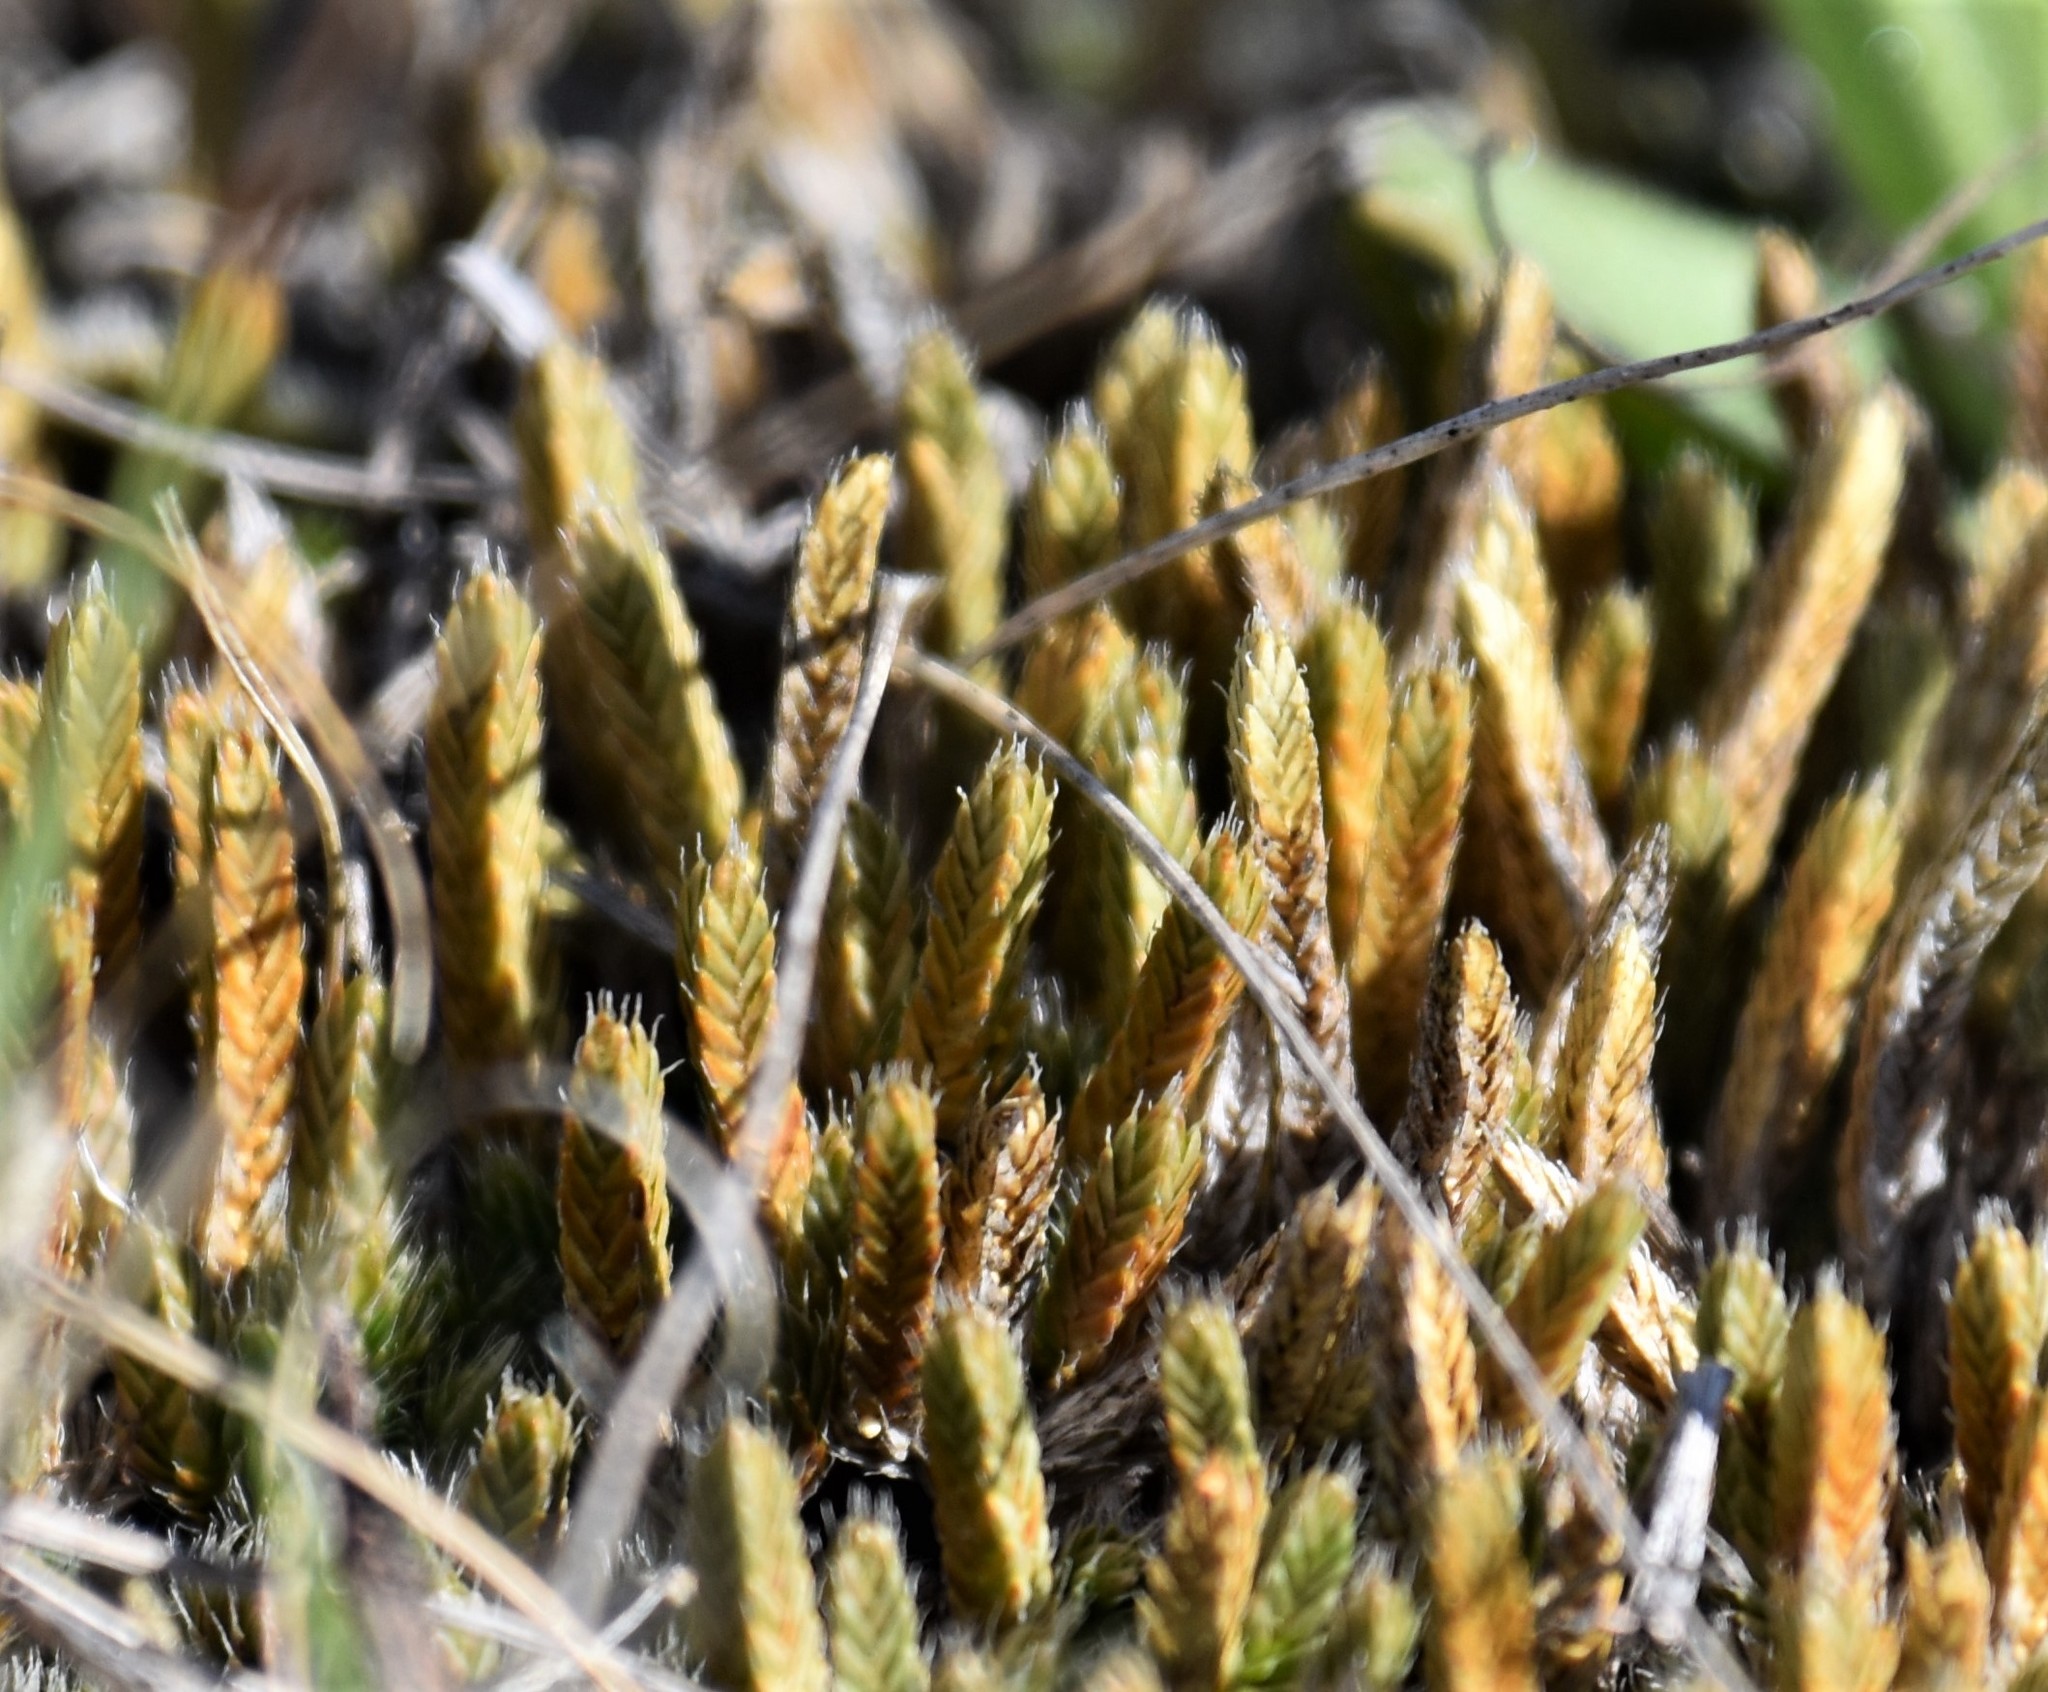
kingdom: Plantae
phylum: Tracheophyta
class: Lycopodiopsida
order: Selaginellales
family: Selaginellaceae
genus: Selaginella
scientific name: Selaginella densa
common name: Mountain spike-moss
